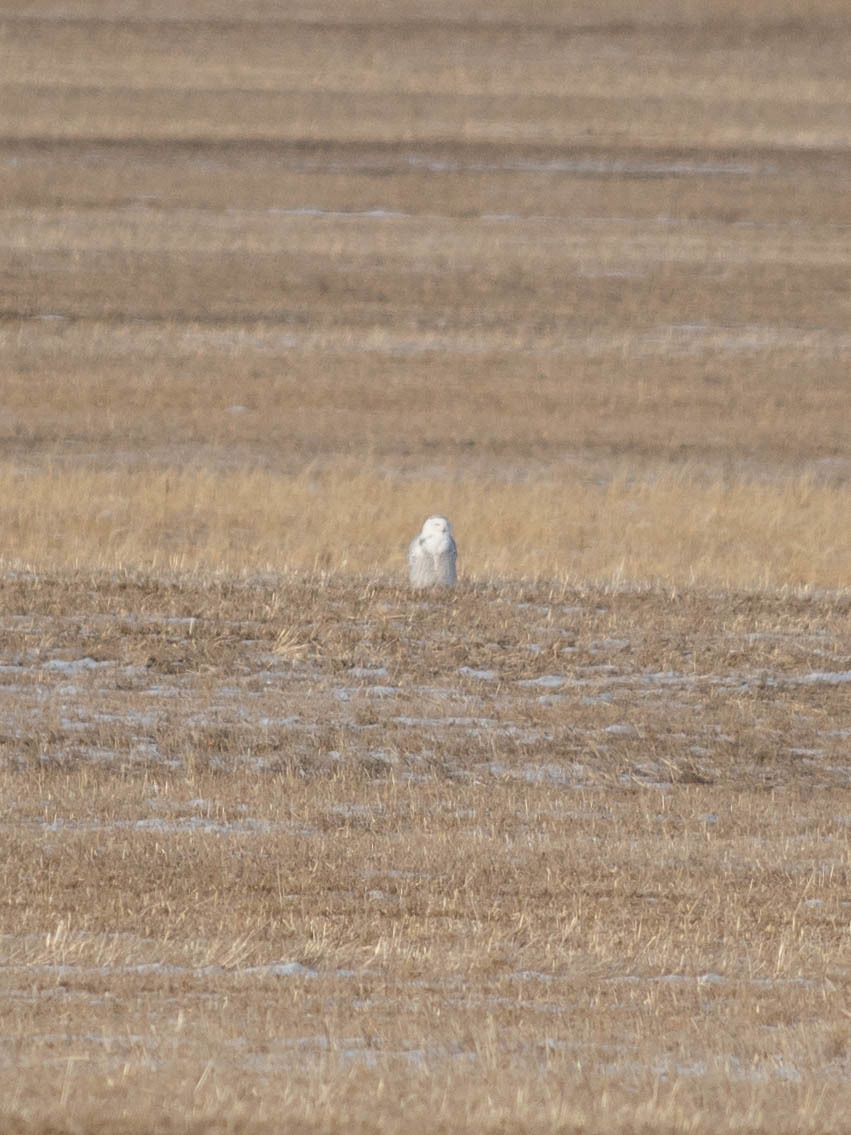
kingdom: Animalia
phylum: Chordata
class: Aves
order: Strigiformes
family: Strigidae
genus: Bubo
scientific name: Bubo scandiacus
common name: Snowy owl
